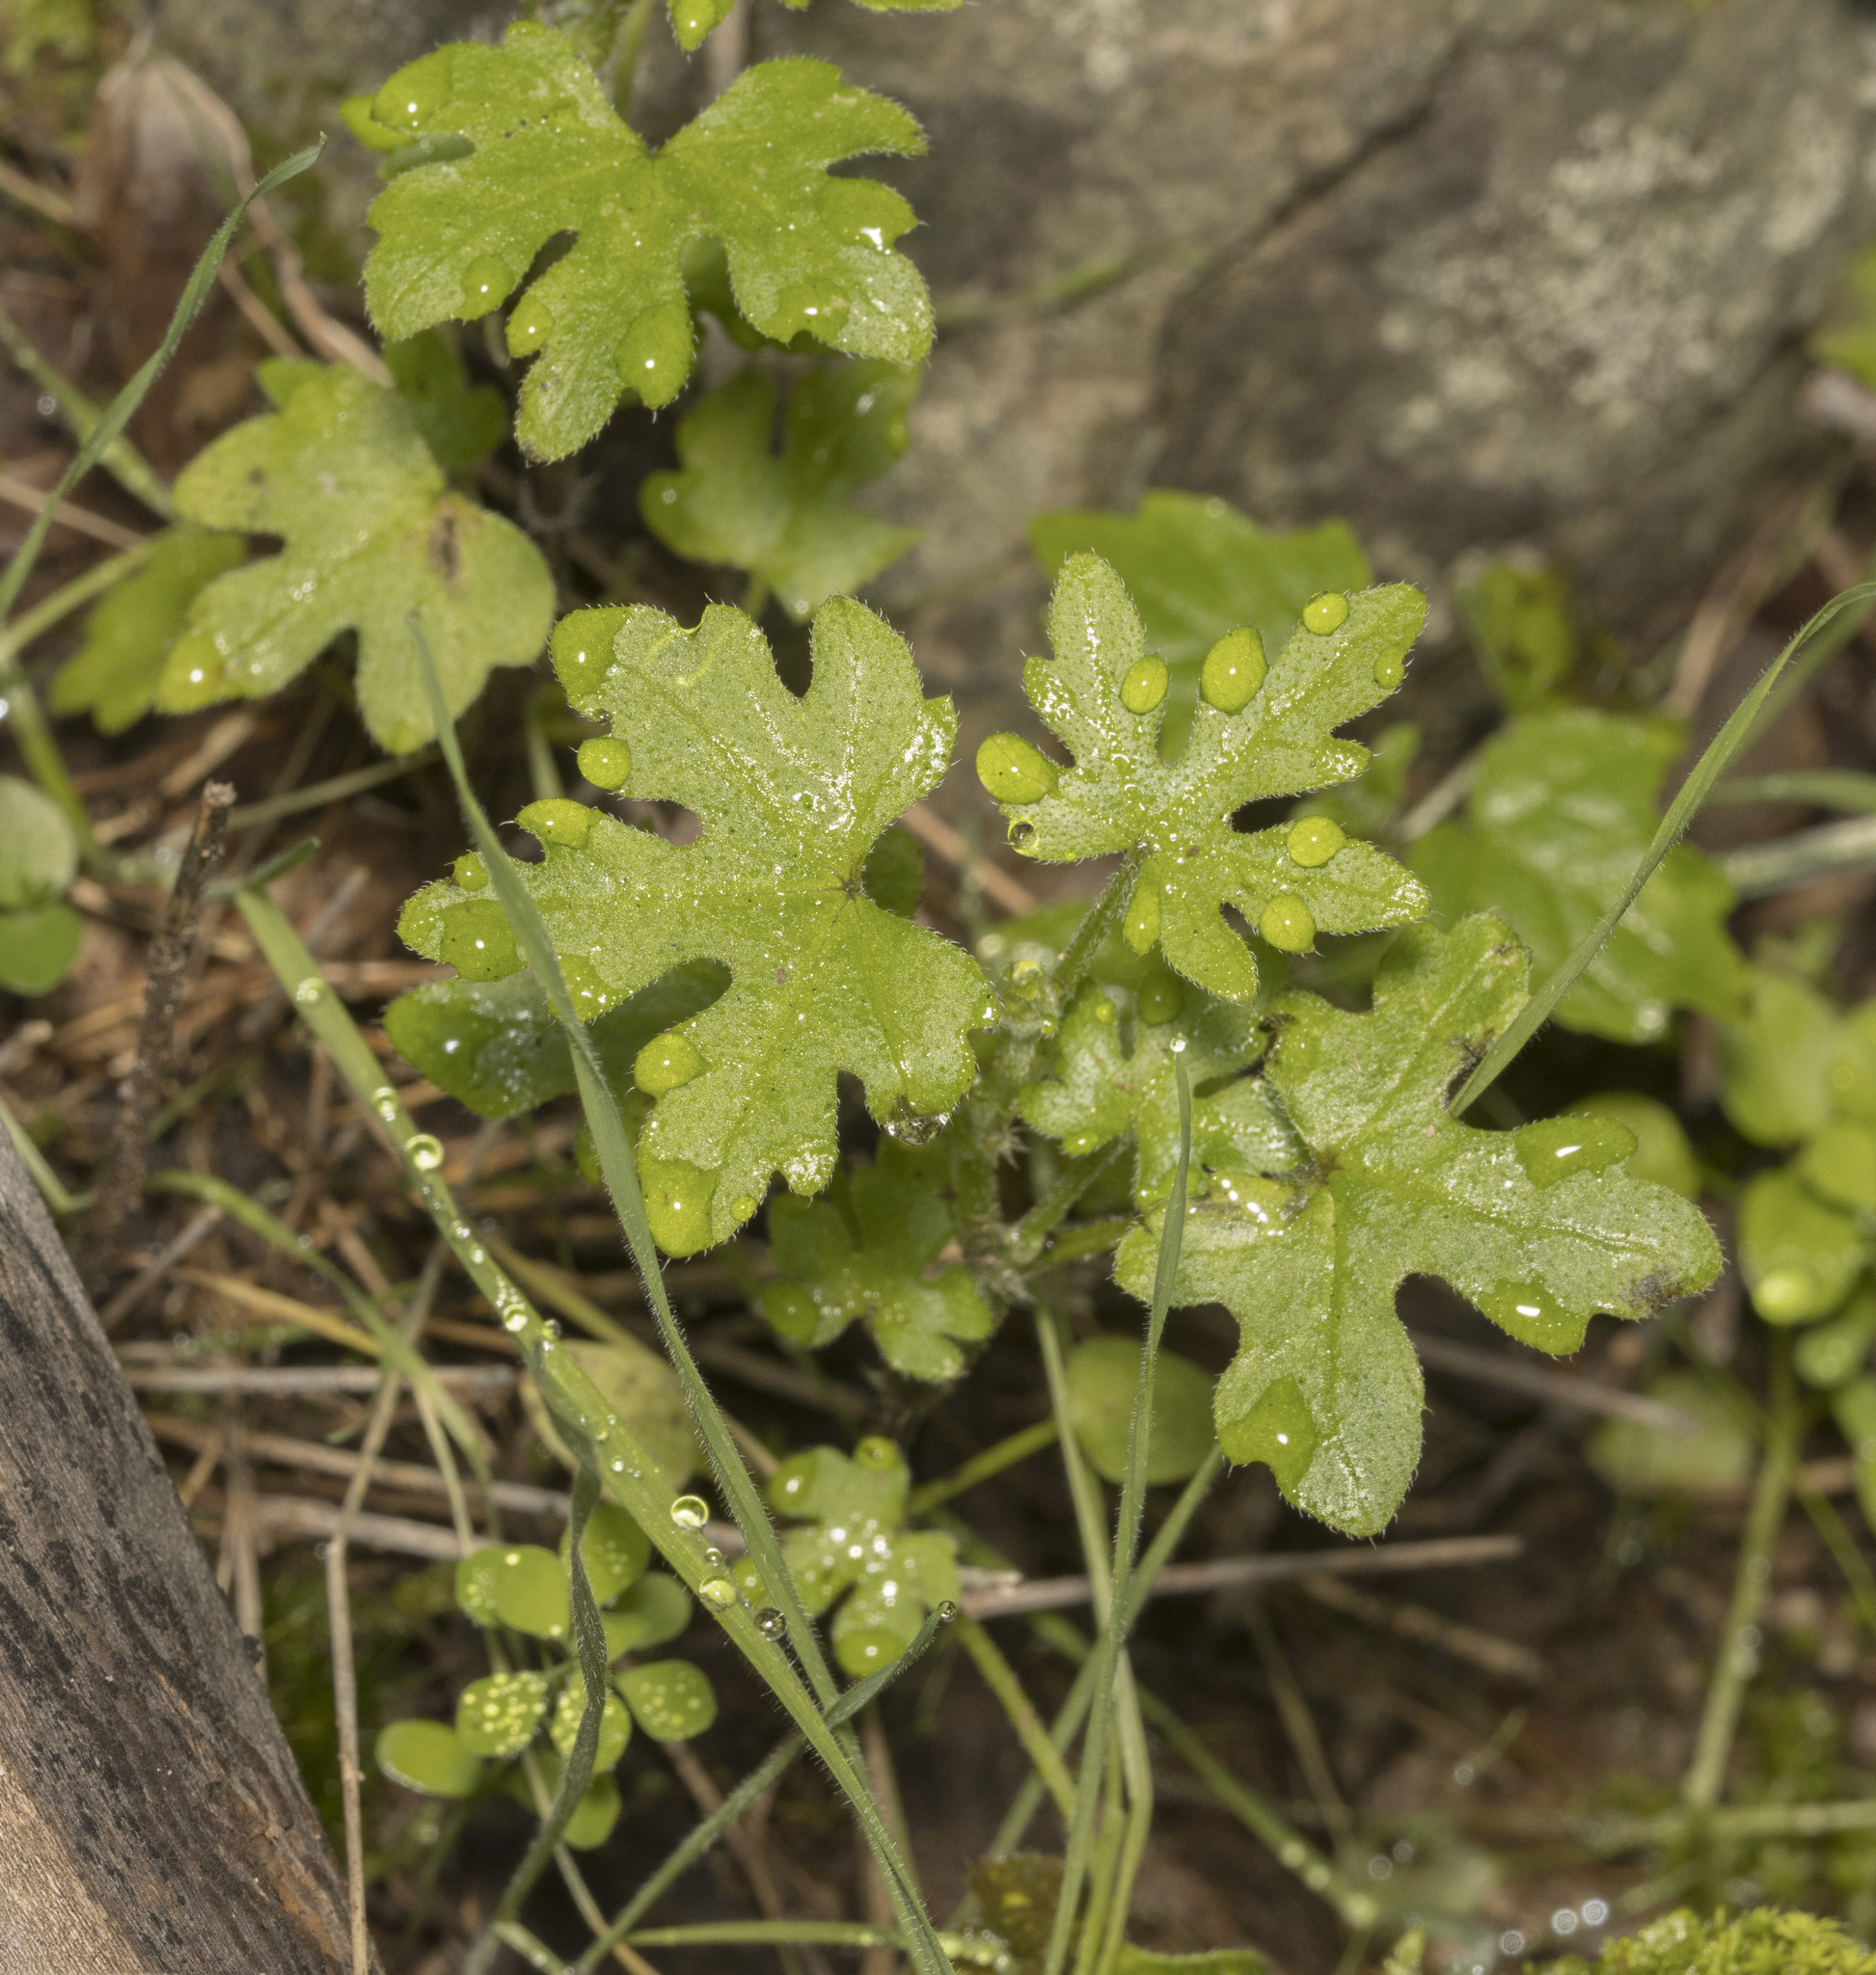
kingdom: Plantae
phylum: Tracheophyta
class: Magnoliopsida
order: Apiales
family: Apiaceae
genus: Bowlesia
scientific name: Bowlesia uncinata
